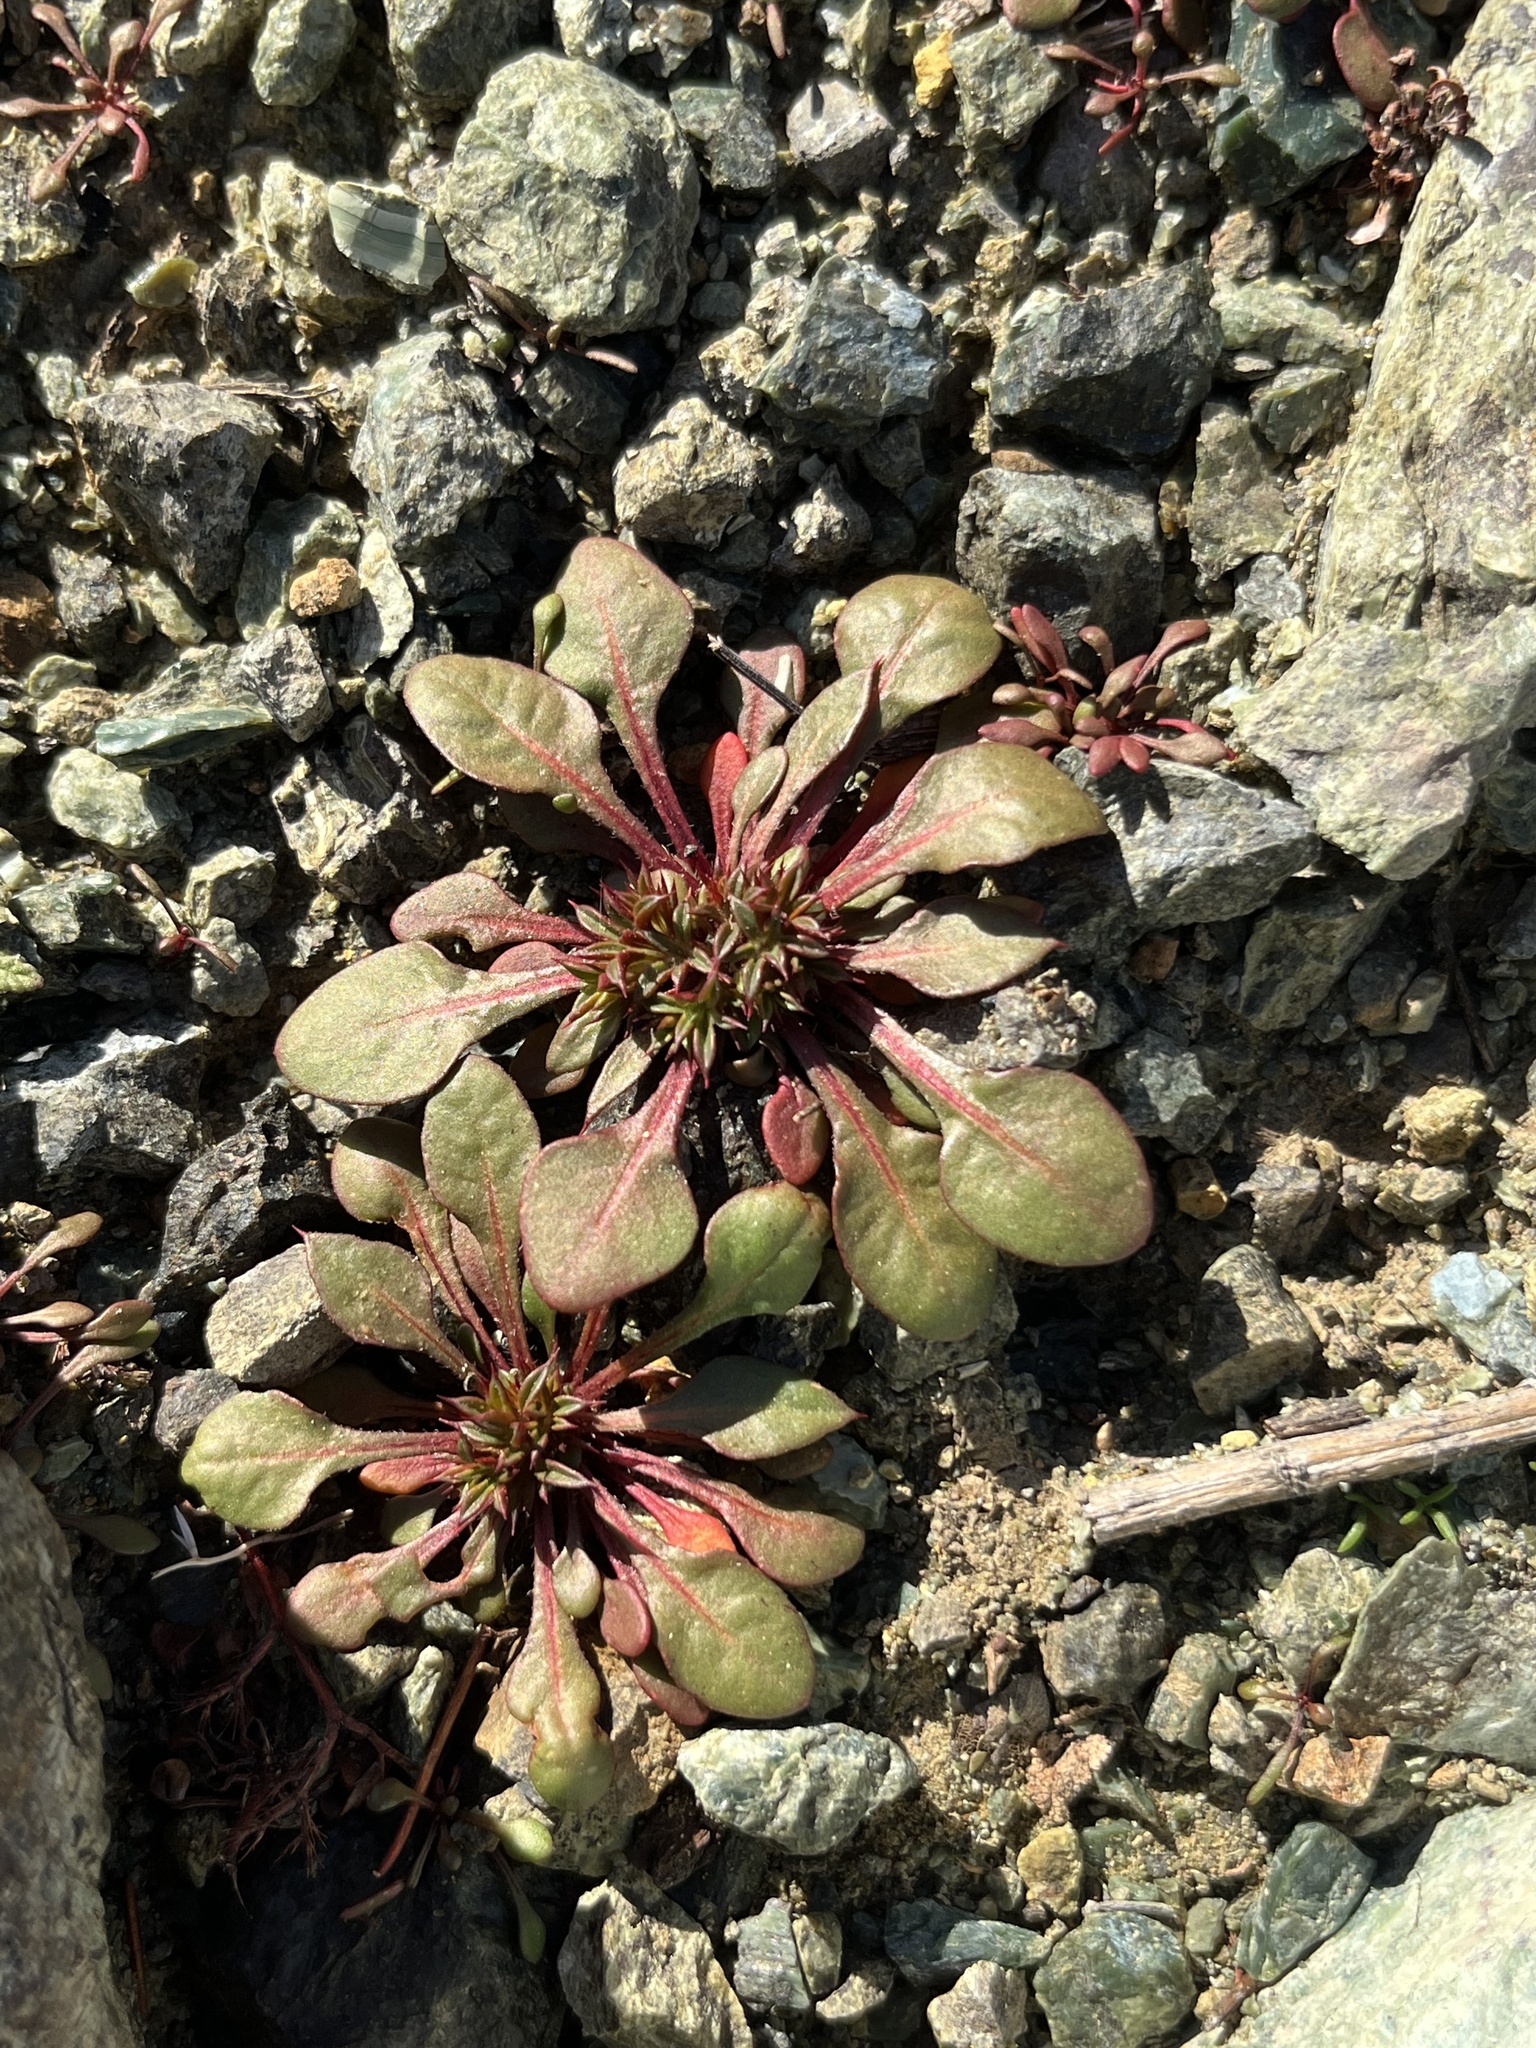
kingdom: Plantae
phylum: Tracheophyta
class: Magnoliopsida
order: Caryophyllales
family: Polygonaceae
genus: Chorizanthe
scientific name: Chorizanthe aphanantha
